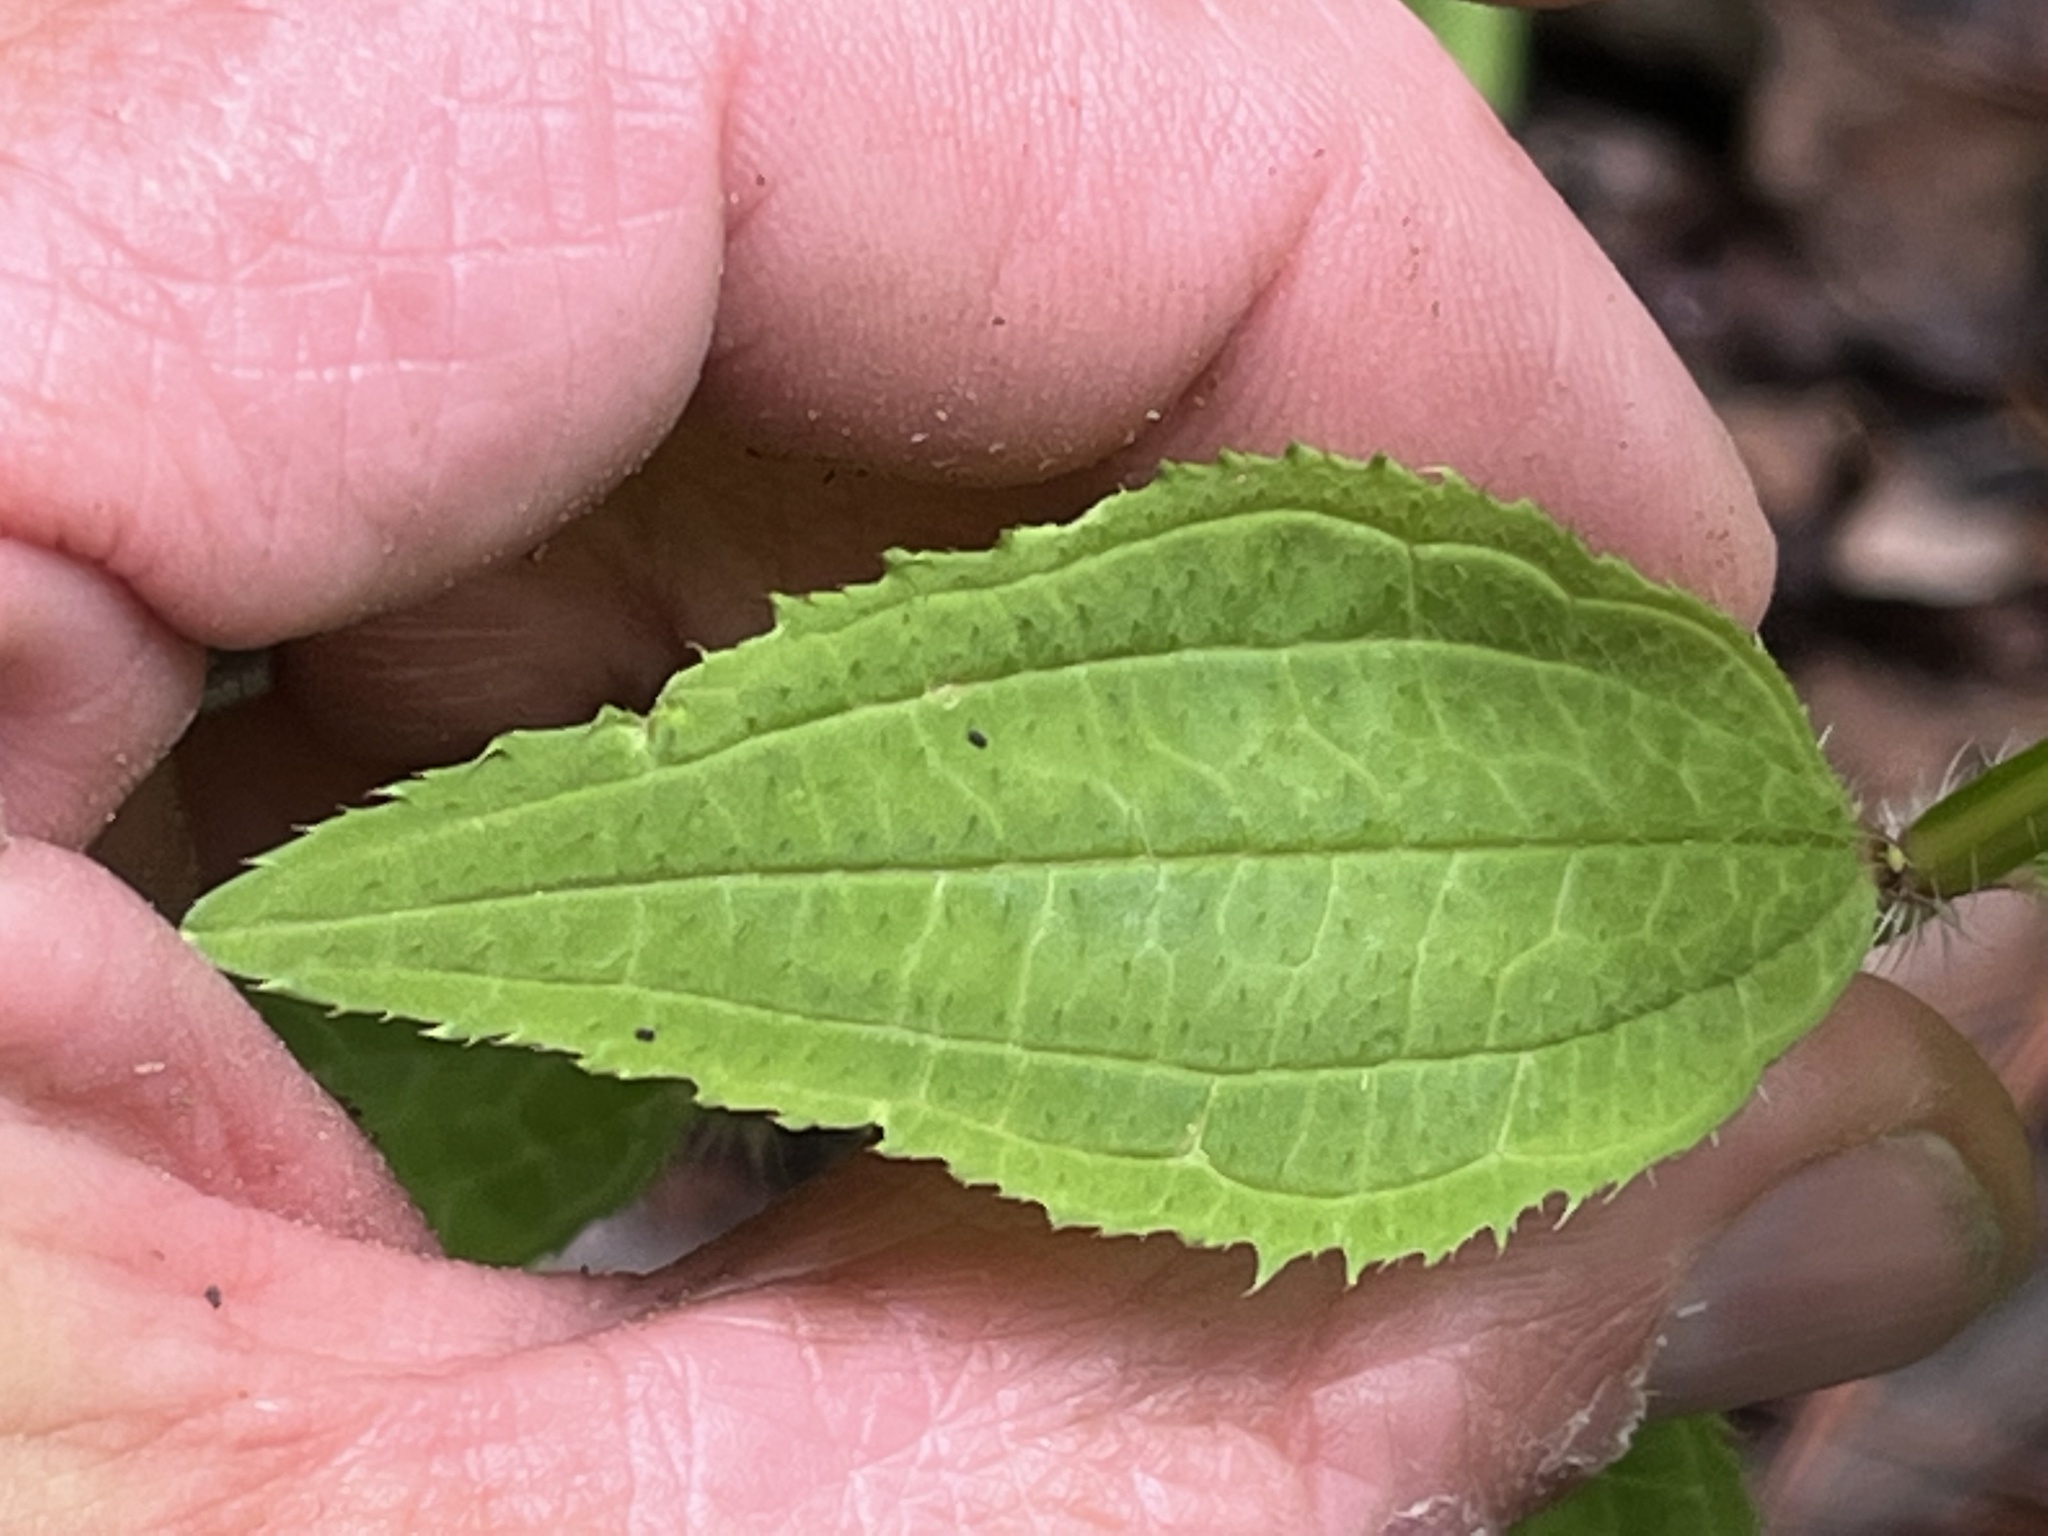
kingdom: Plantae
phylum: Tracheophyta
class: Magnoliopsida
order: Myrtales
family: Melastomataceae
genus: Rhexia
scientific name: Rhexia virginica
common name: Common meadow beauty
